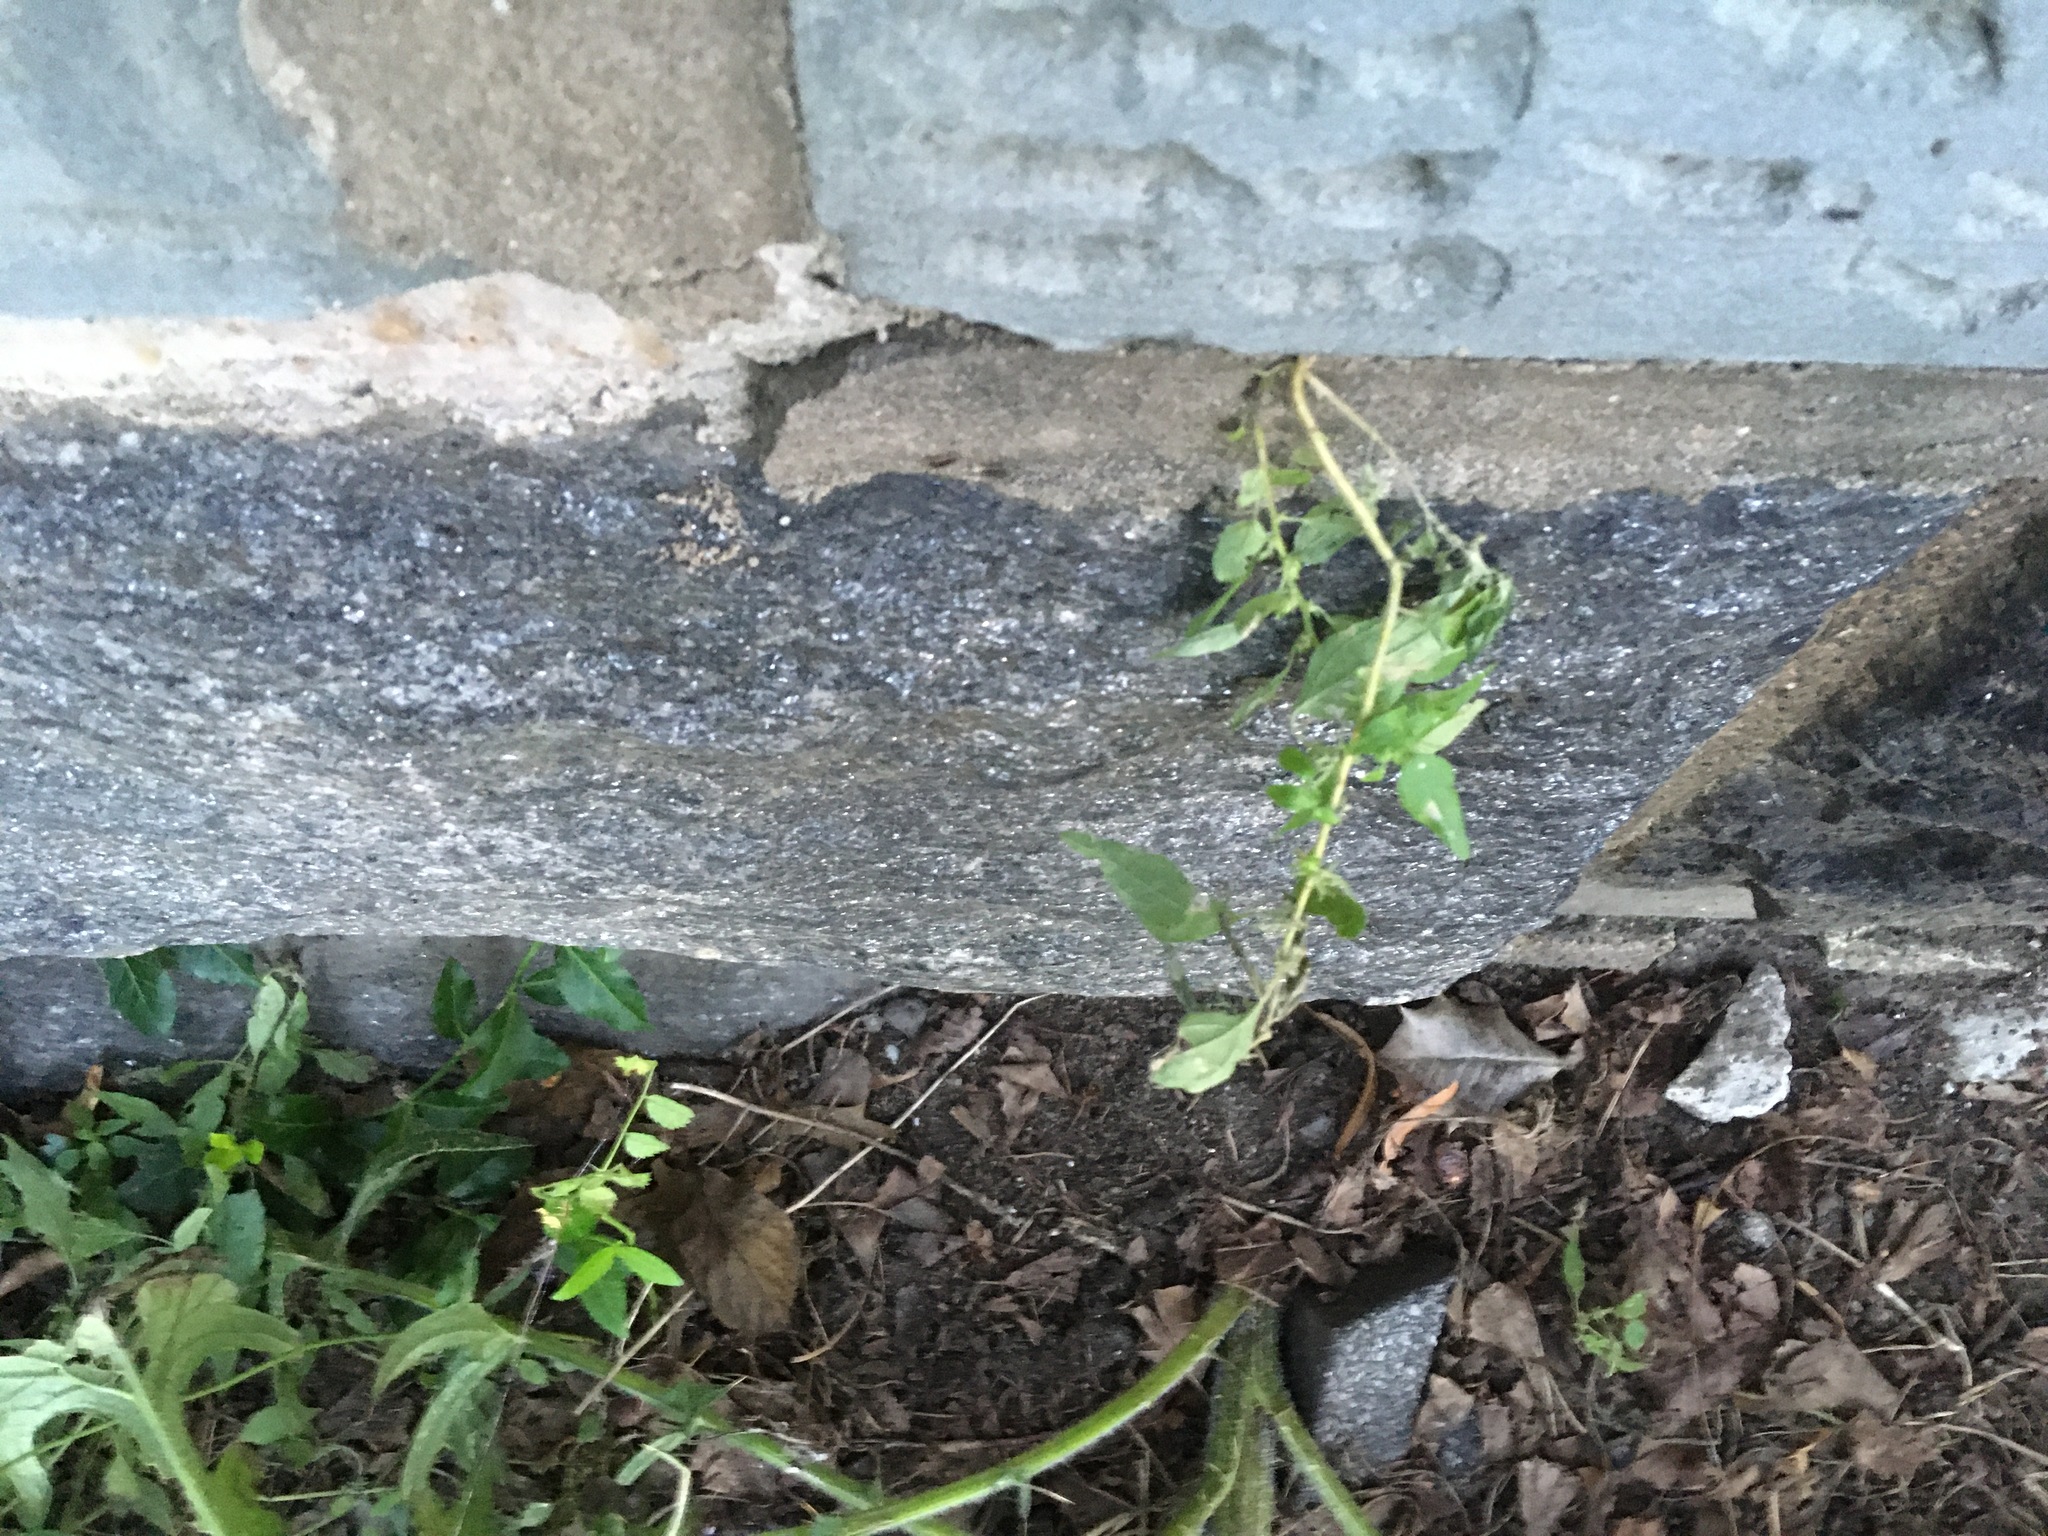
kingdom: Plantae
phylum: Tracheophyta
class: Magnoliopsida
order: Rosales
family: Urticaceae
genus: Parietaria
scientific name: Parietaria pensylvanica
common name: Pennsylvania pellitory
